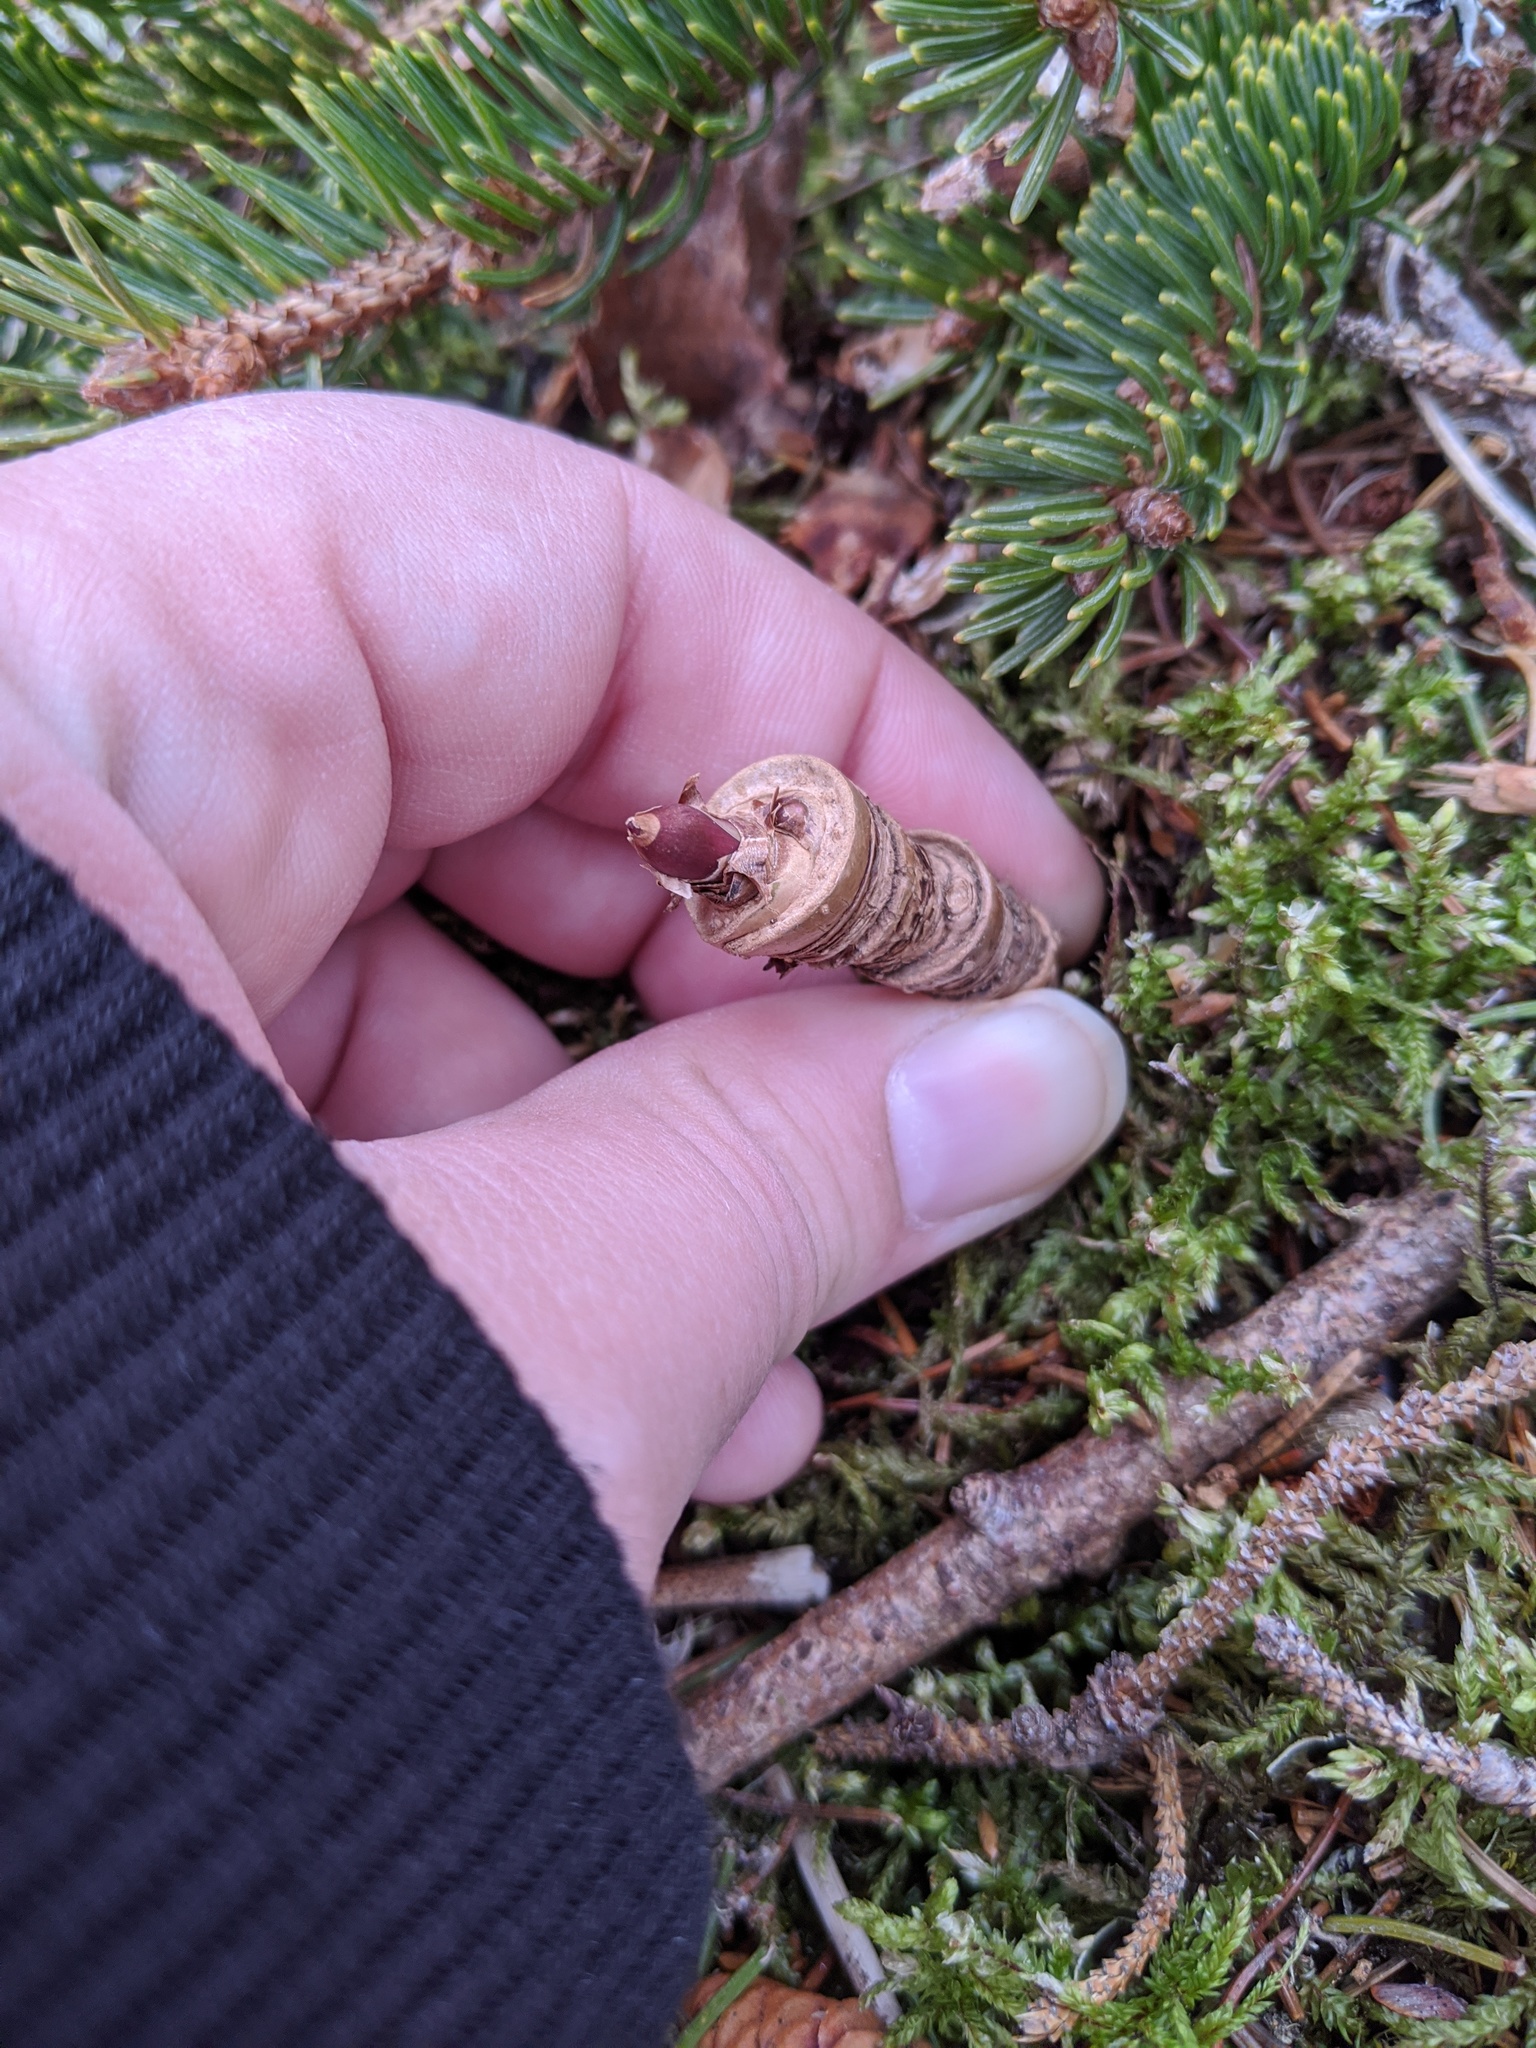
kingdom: Plantae
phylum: Tracheophyta
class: Magnoliopsida
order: Apiales
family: Araliaceae
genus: Aralia
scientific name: Aralia nudicaulis
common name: Wild sarsaparilla
